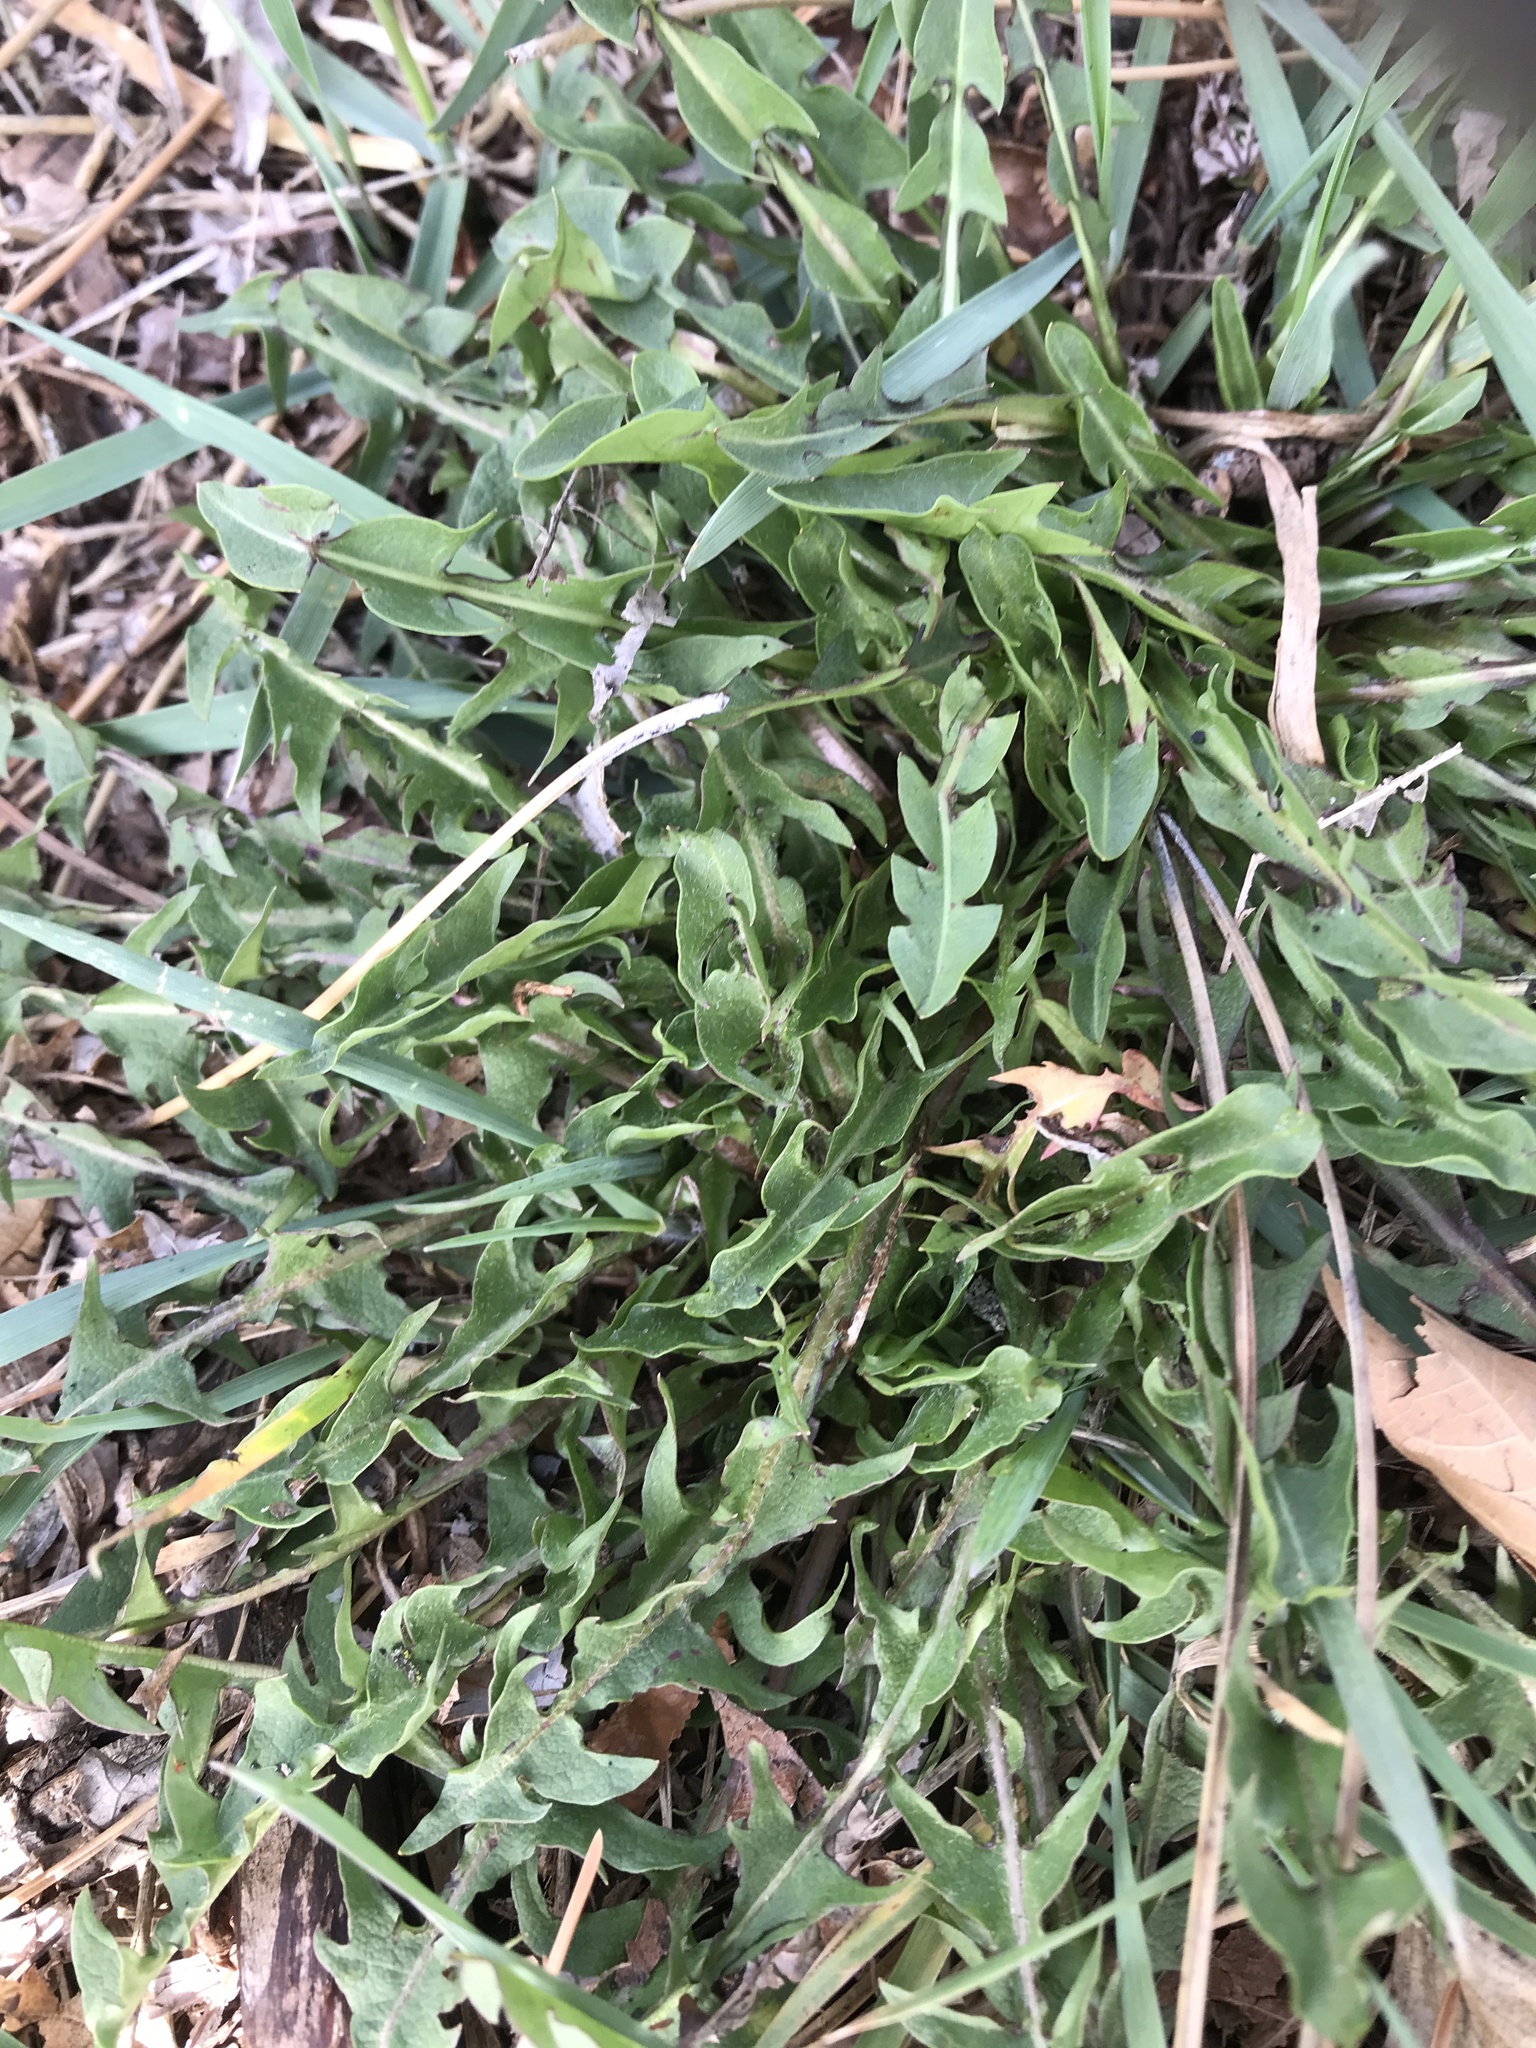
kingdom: Plantae
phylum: Tracheophyta
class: Magnoliopsida
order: Asterales
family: Asteraceae
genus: Taraxacum
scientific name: Taraxacum officinale
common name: Common dandelion
